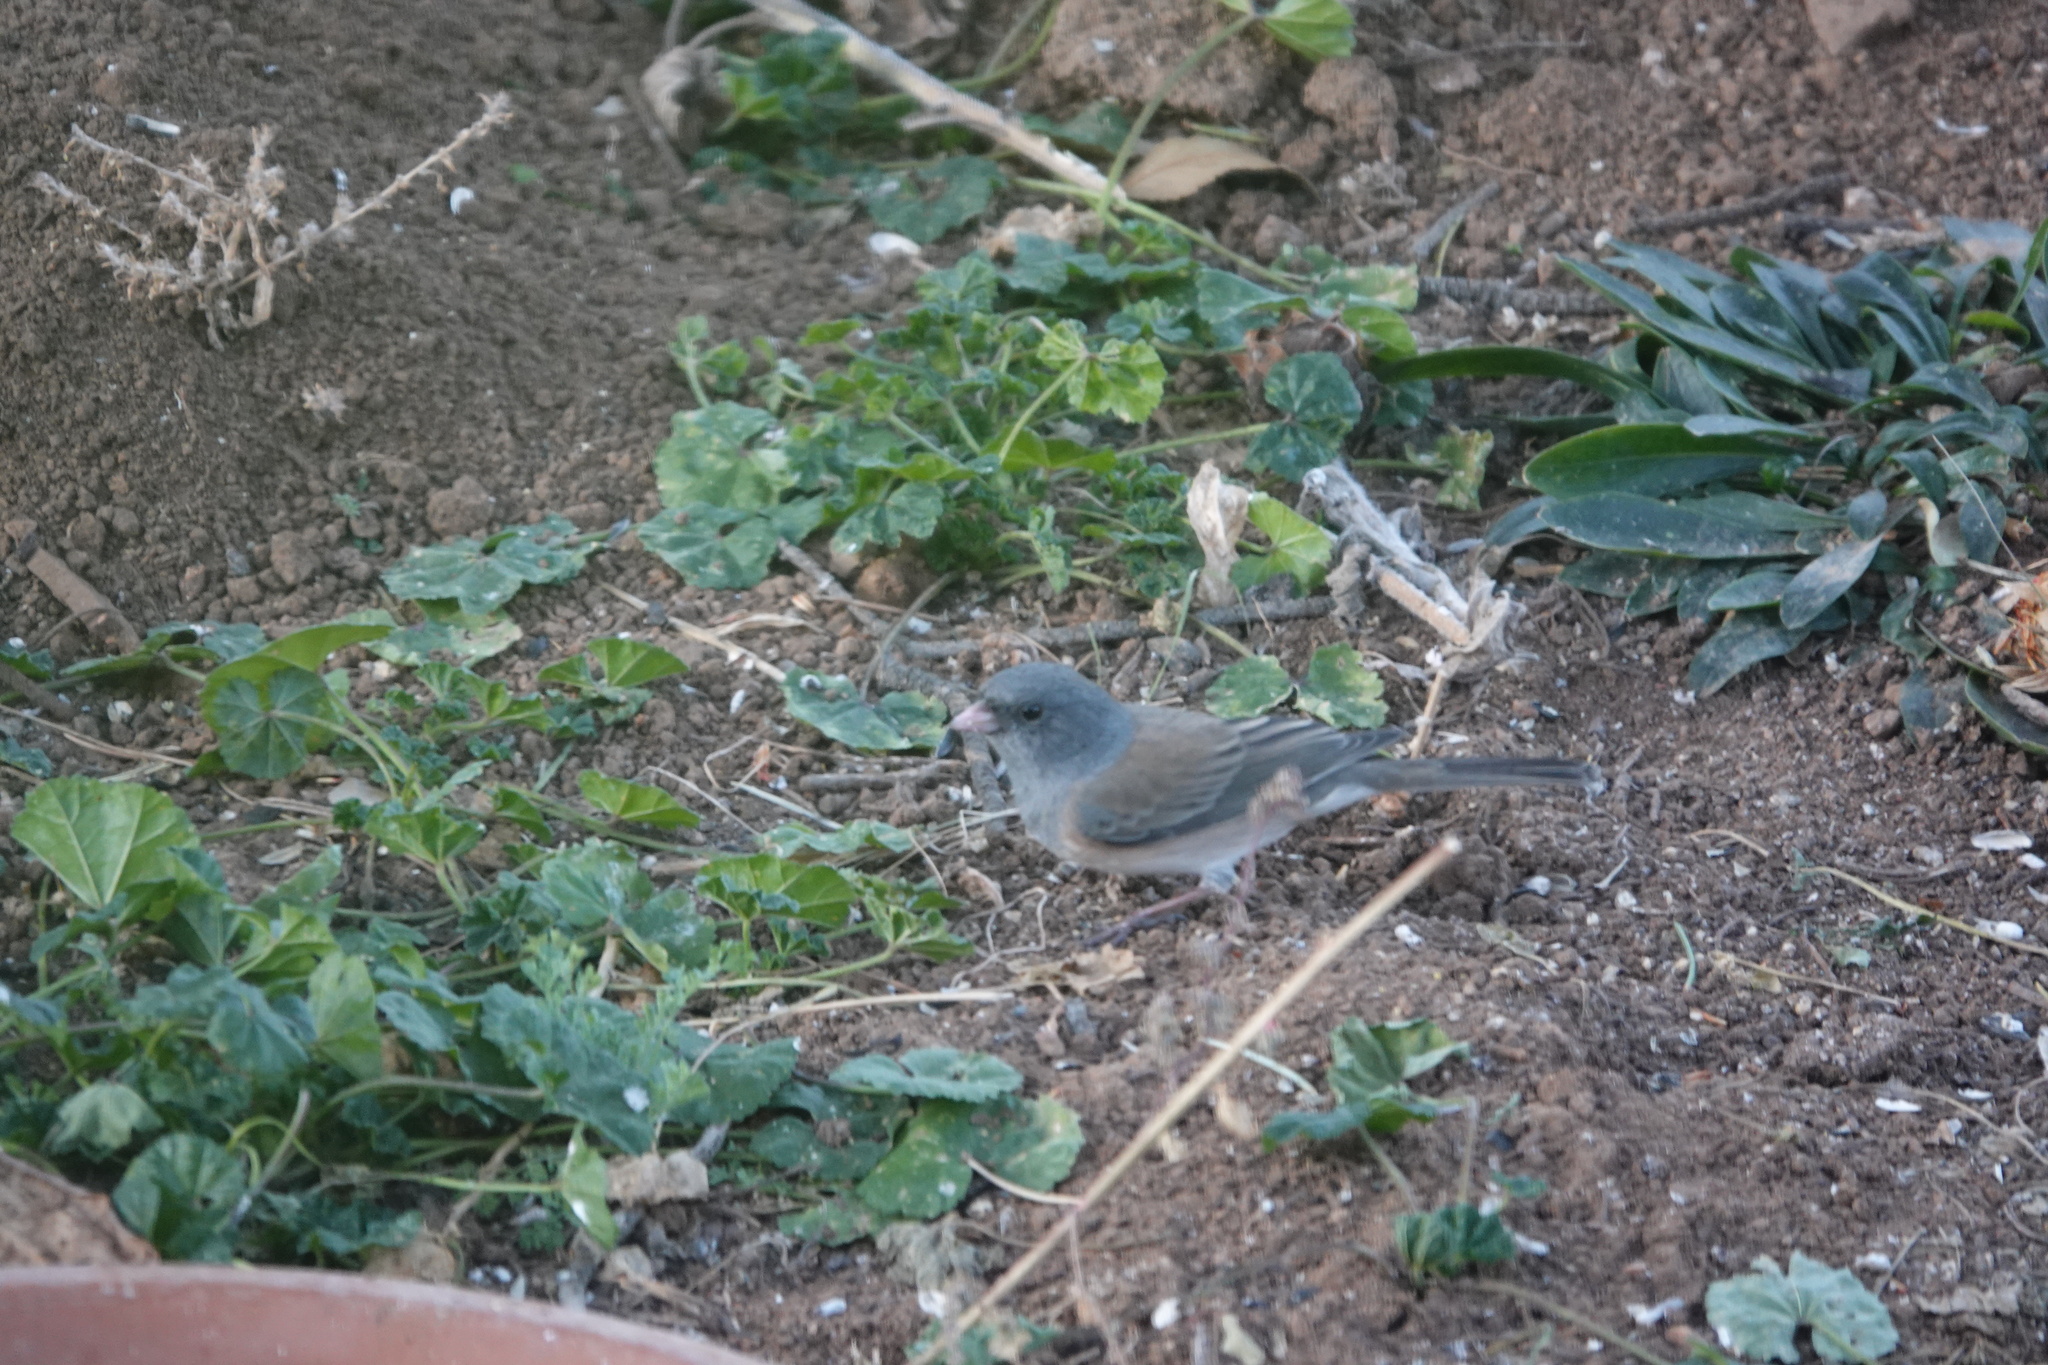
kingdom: Animalia
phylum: Chordata
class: Aves
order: Passeriformes
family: Passerellidae
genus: Junco
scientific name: Junco hyemalis
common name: Dark-eyed junco
